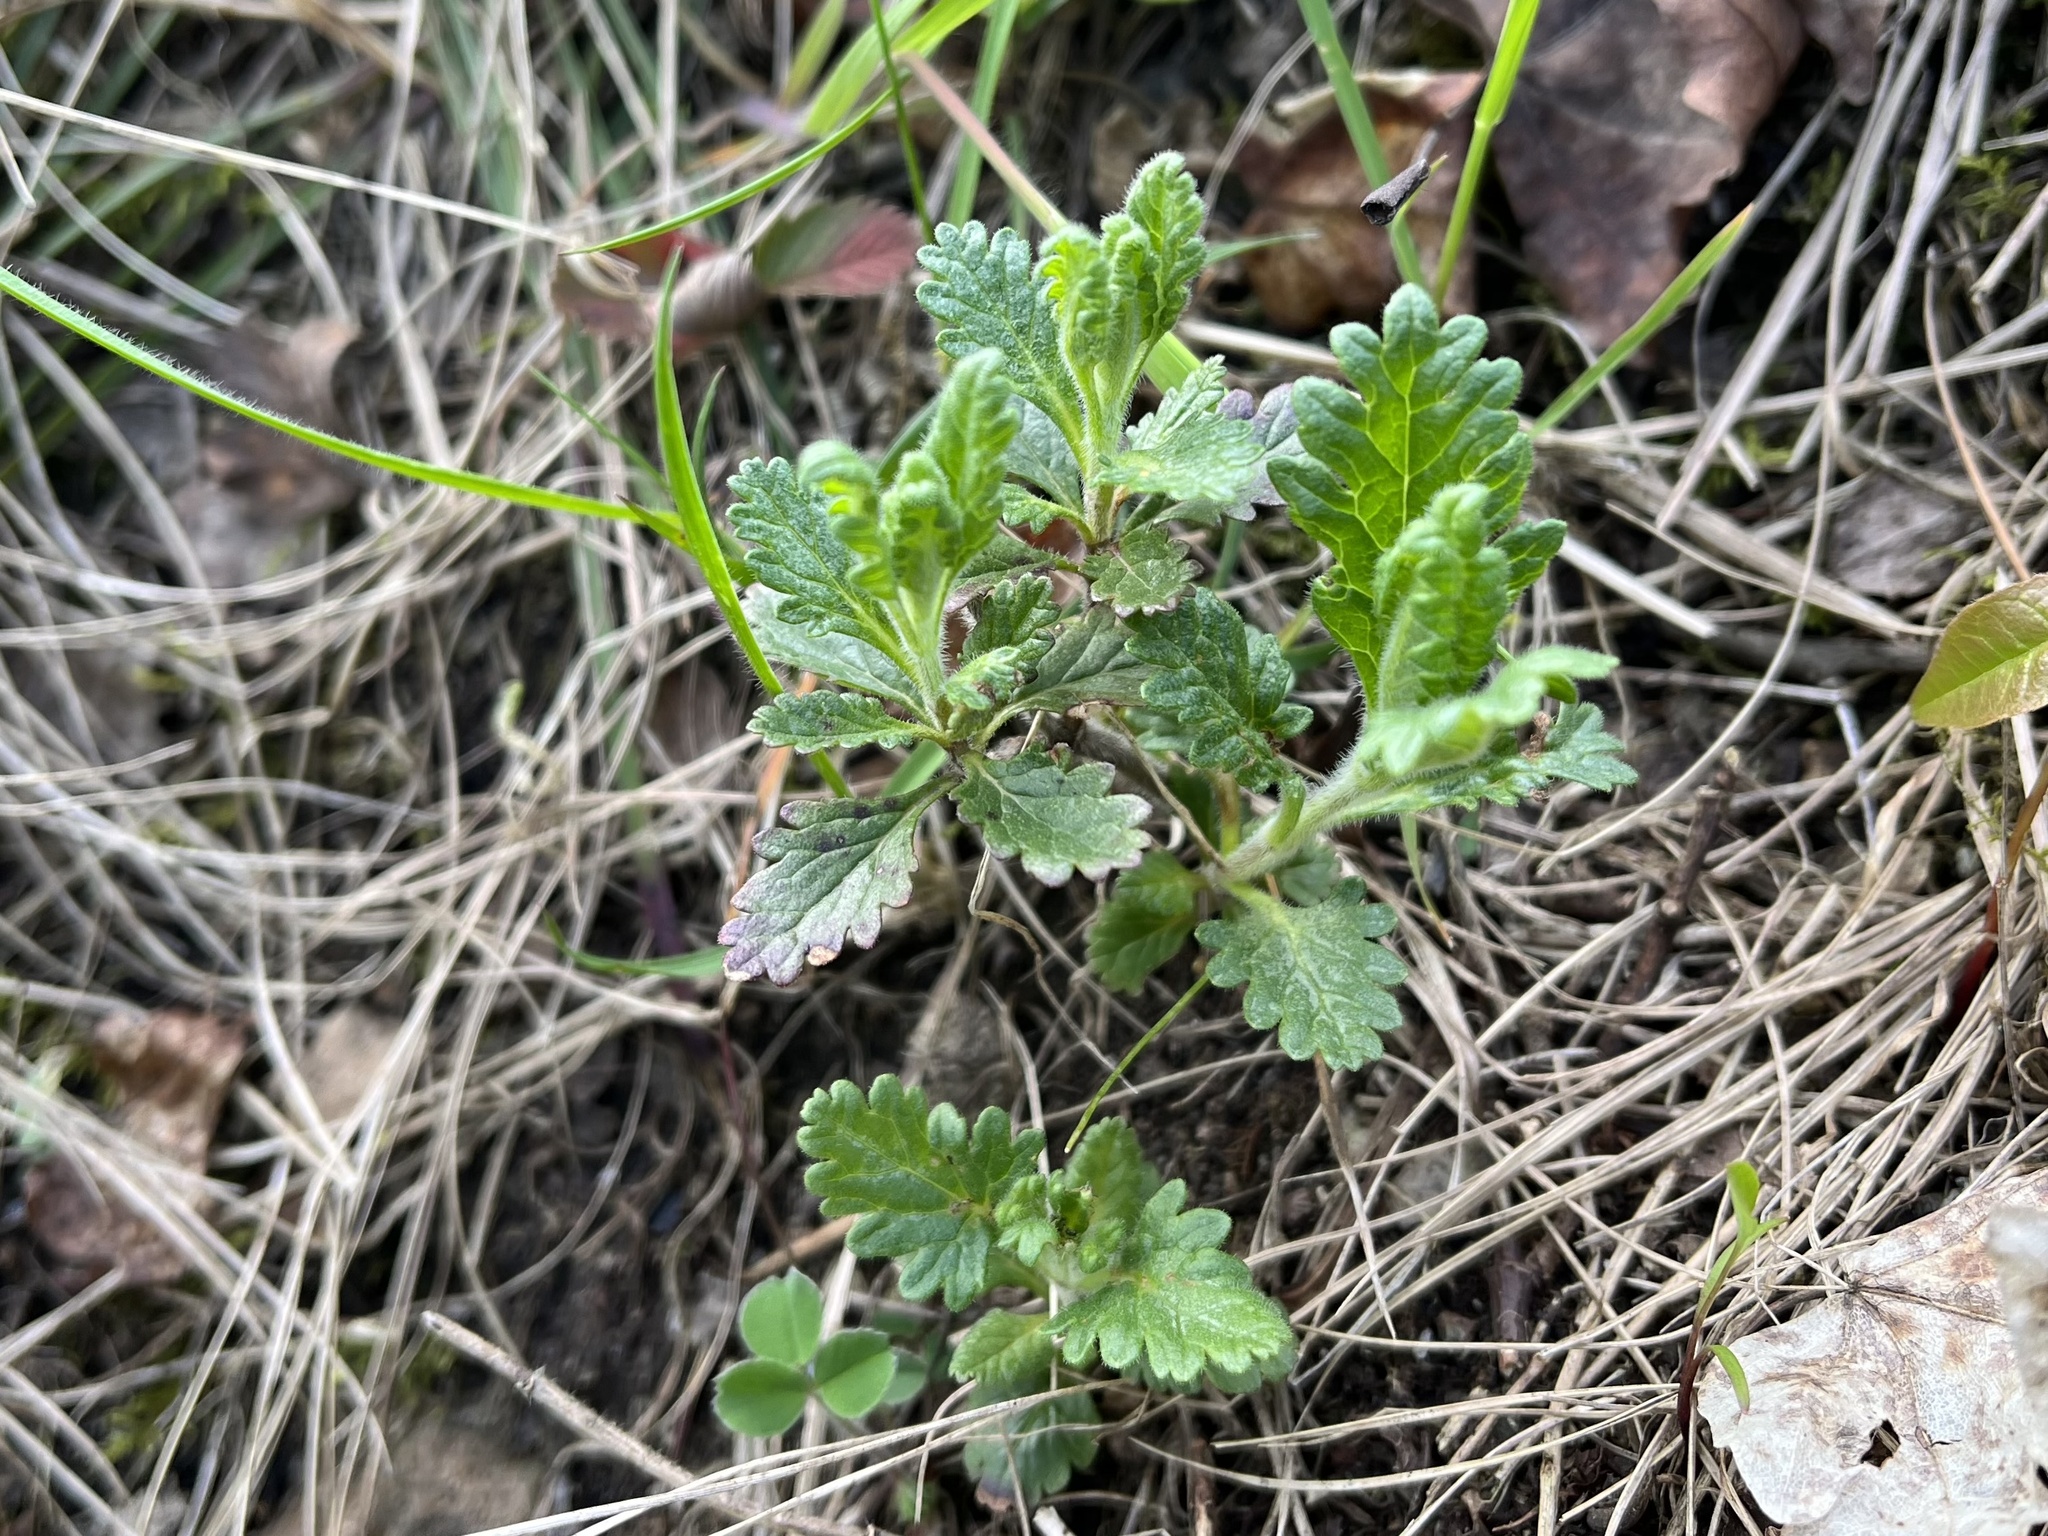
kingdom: Plantae
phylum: Tracheophyta
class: Magnoliopsida
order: Lamiales
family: Lamiaceae
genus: Teucrium
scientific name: Teucrium chamaedrys
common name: Wall germander
